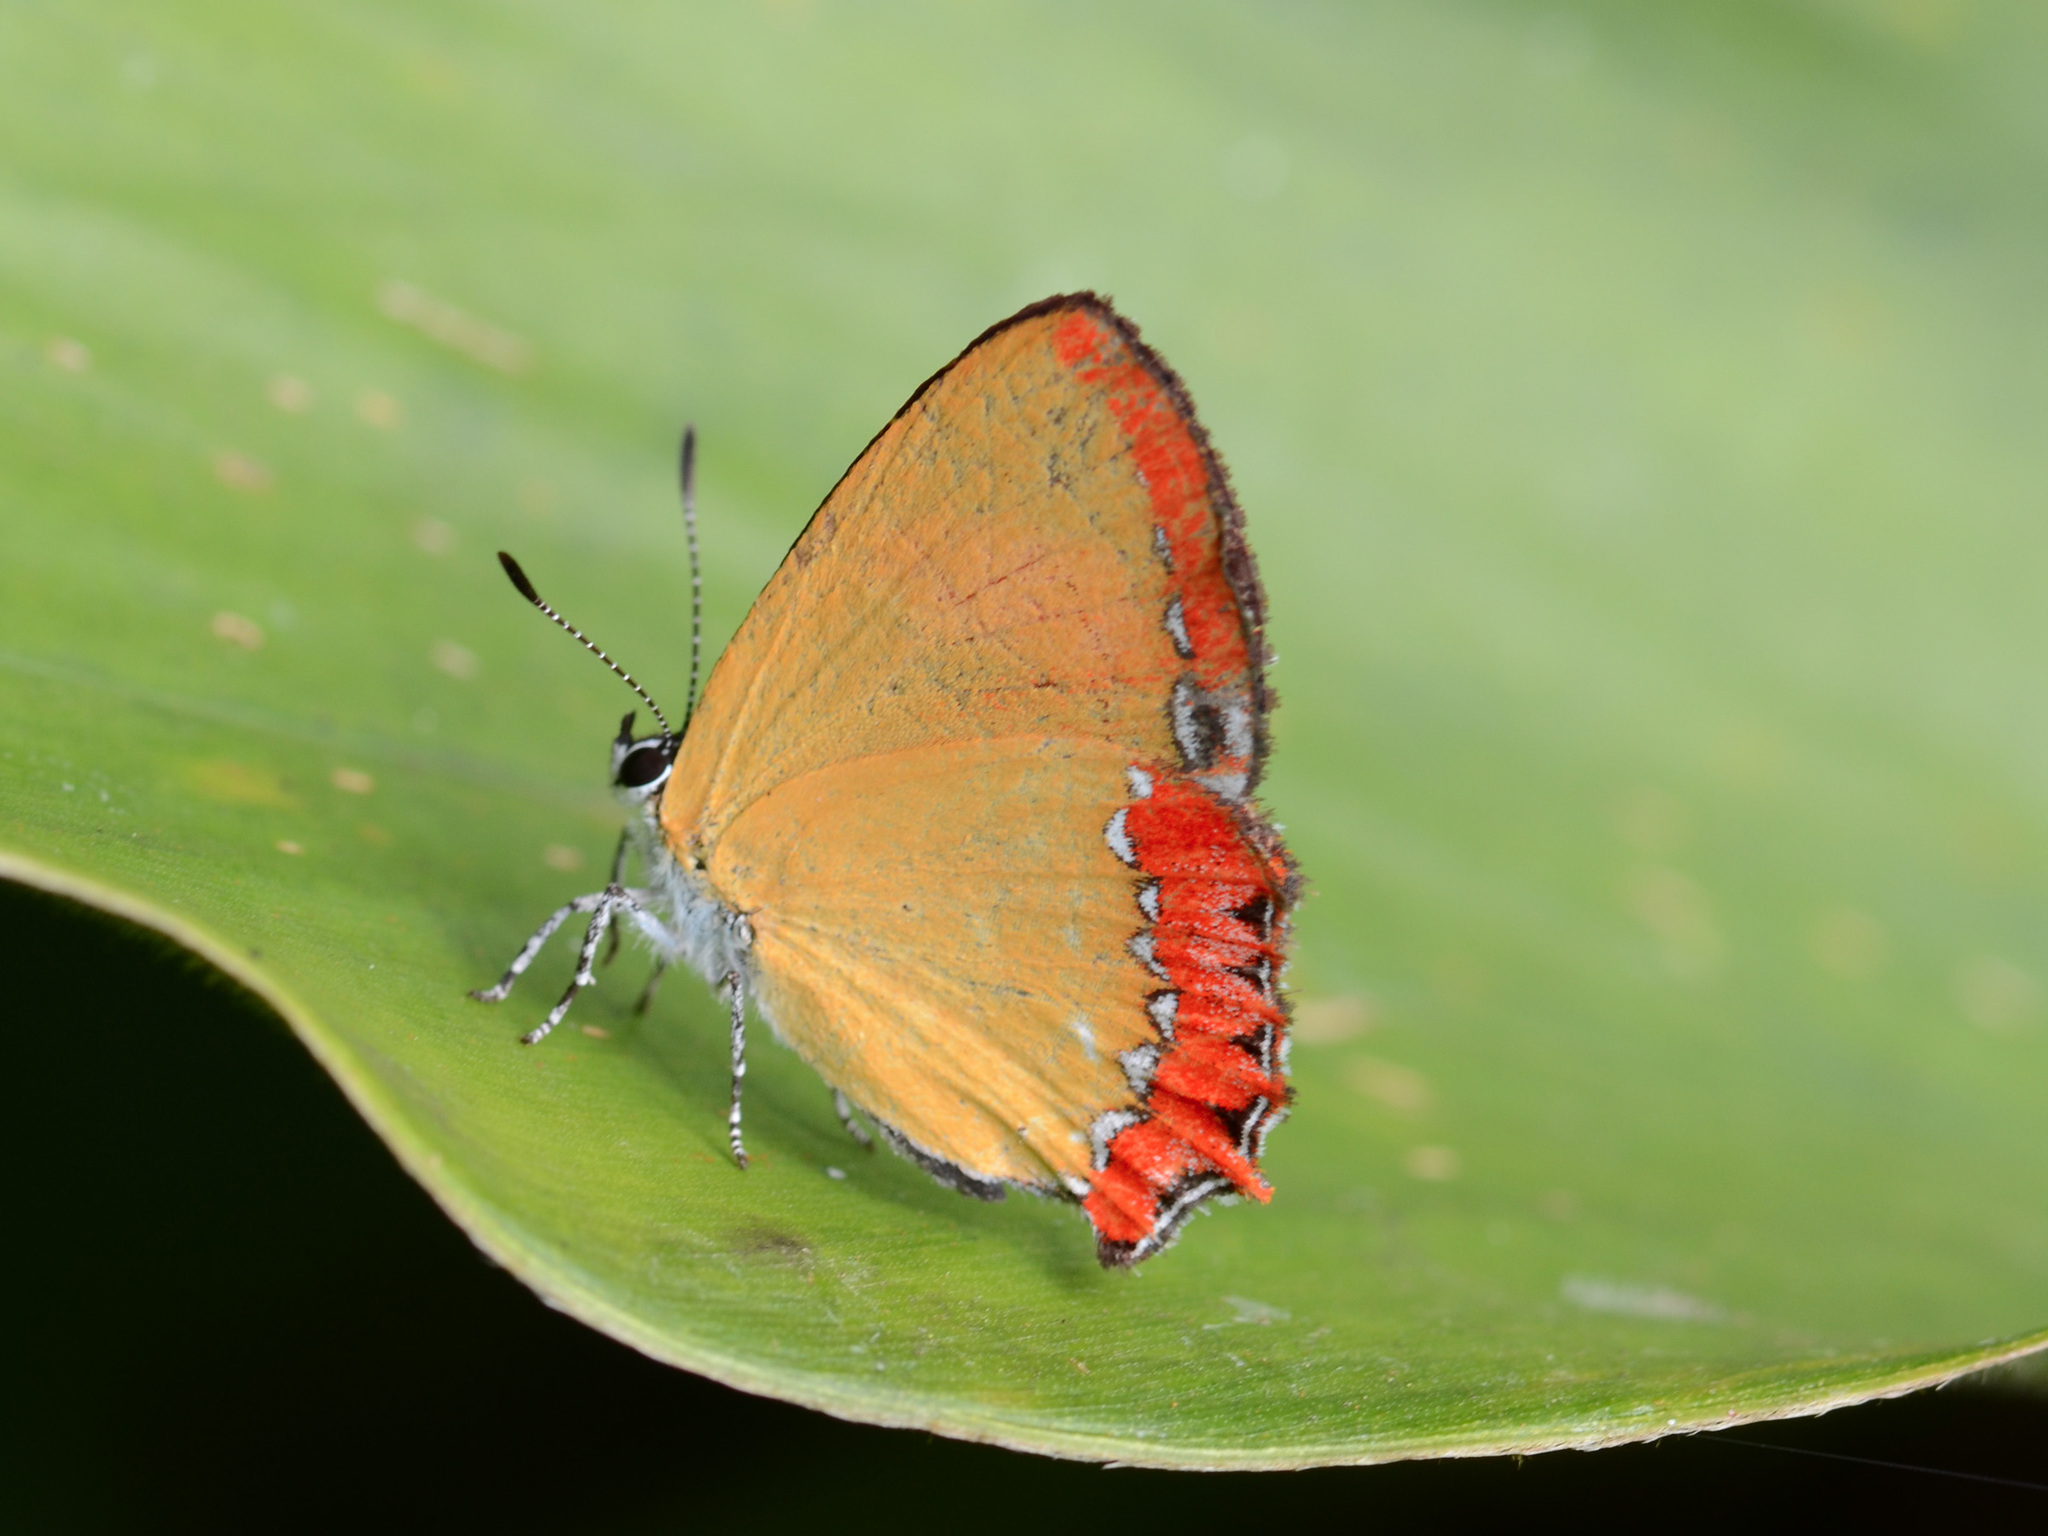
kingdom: Animalia
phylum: Arthropoda
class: Insecta
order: Lepidoptera
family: Lycaenidae
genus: Heliophorus
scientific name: Heliophorus epicles
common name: Purple sapphire
